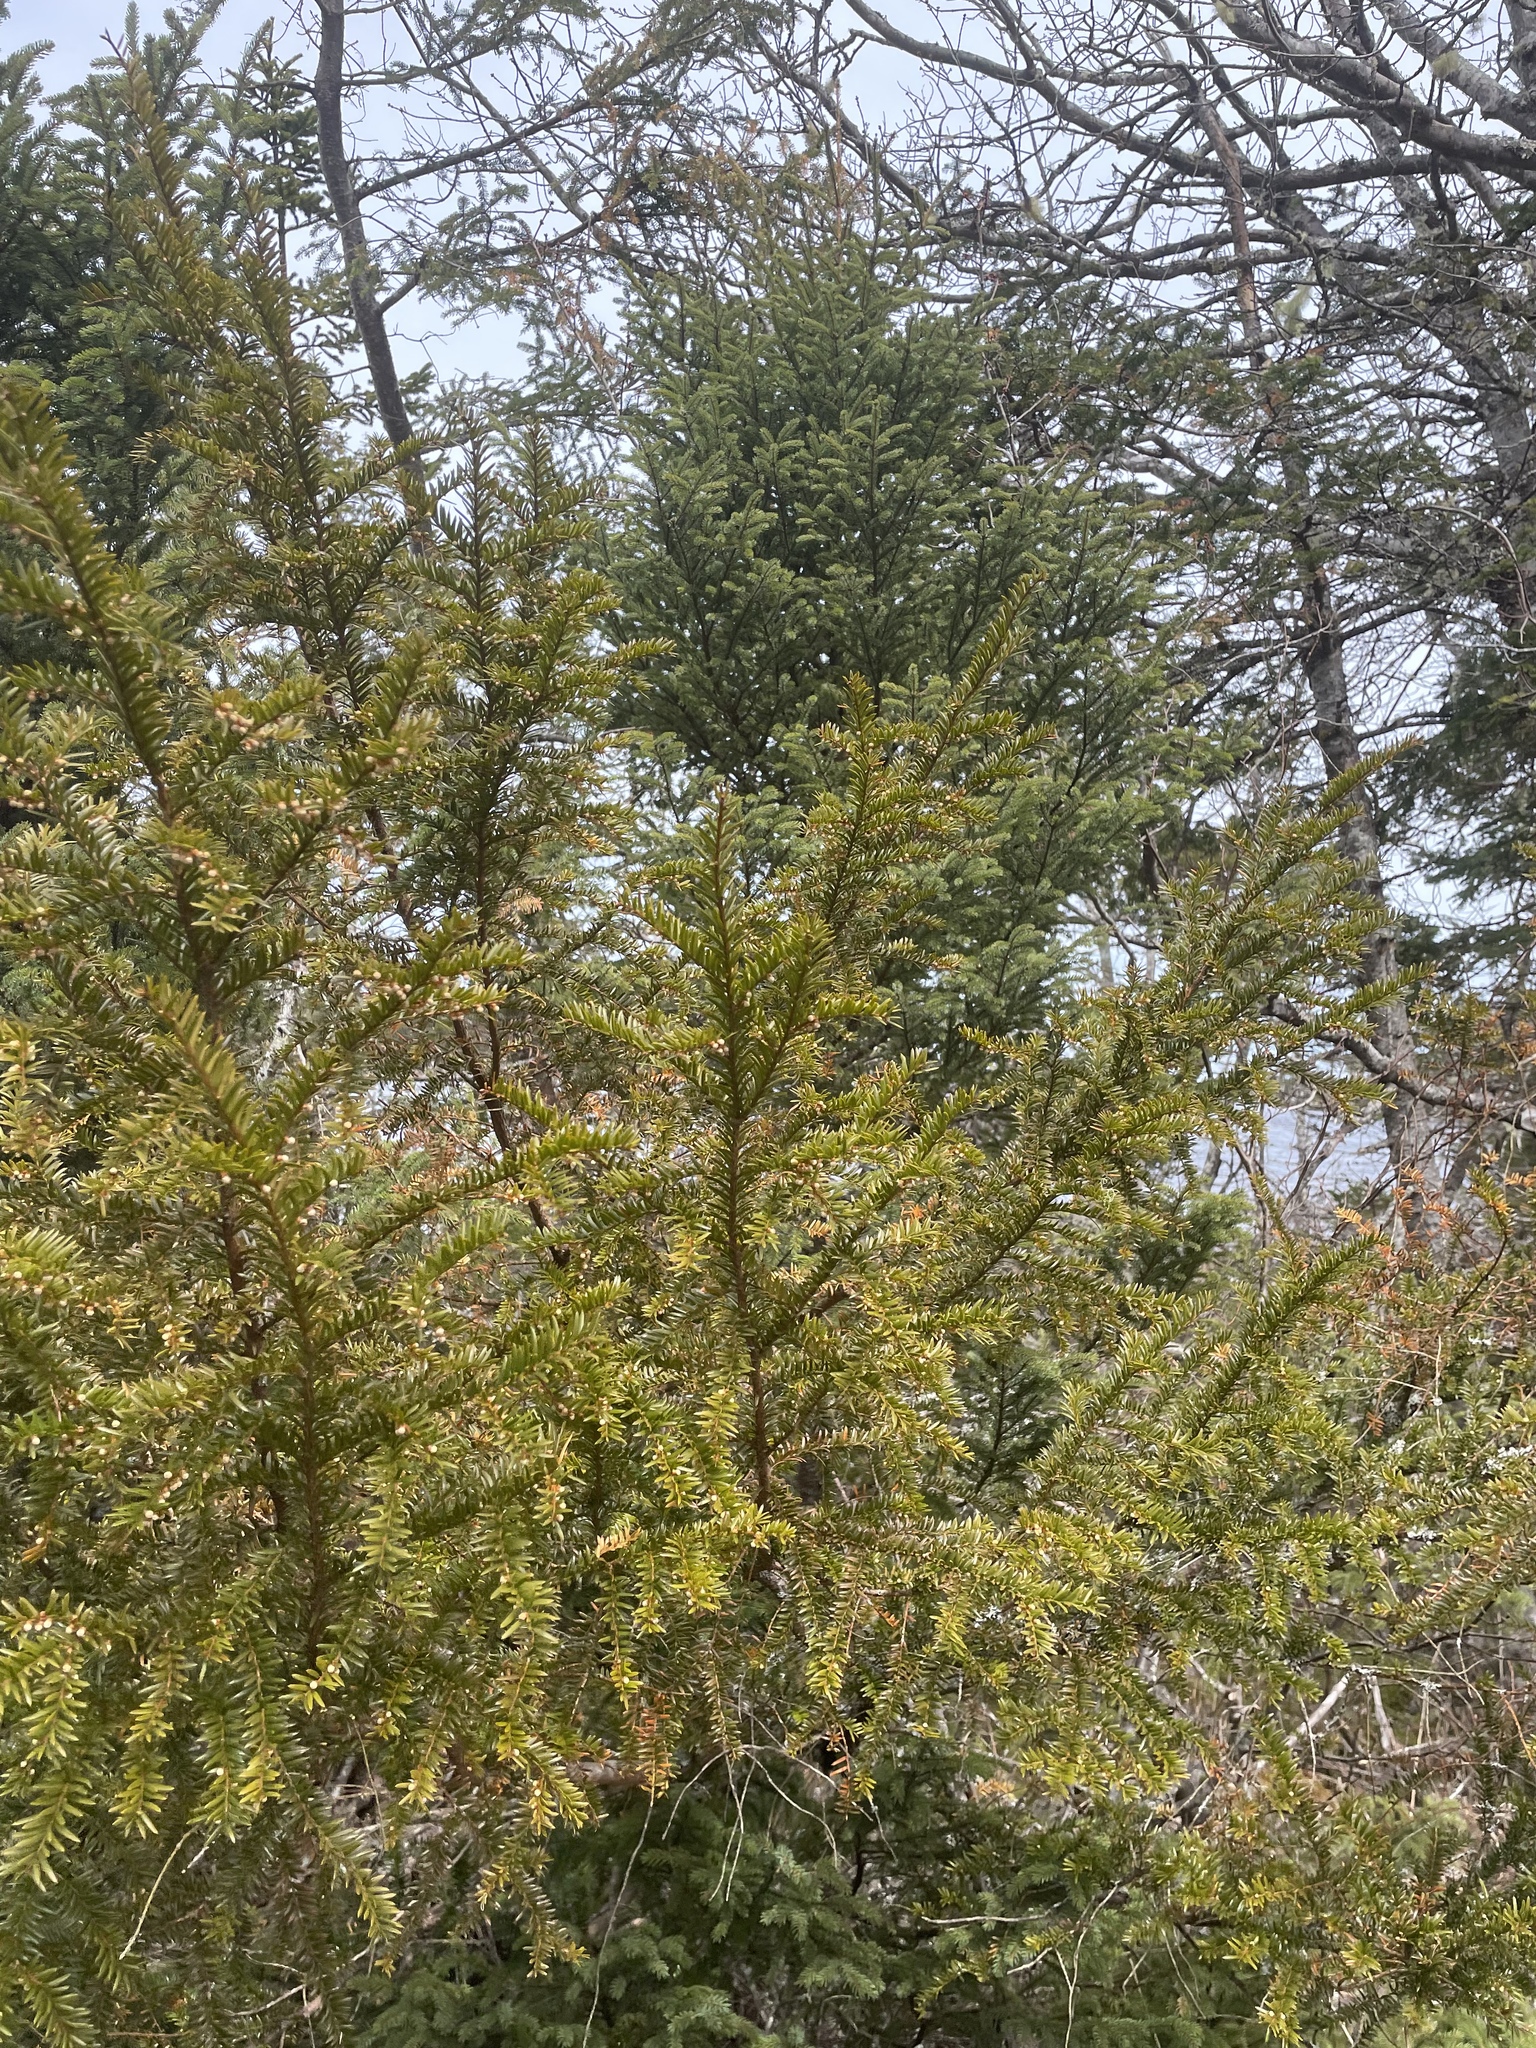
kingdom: Plantae
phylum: Tracheophyta
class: Pinopsida
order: Pinales
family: Taxaceae
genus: Taxus
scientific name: Taxus canadensis
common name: American yew
